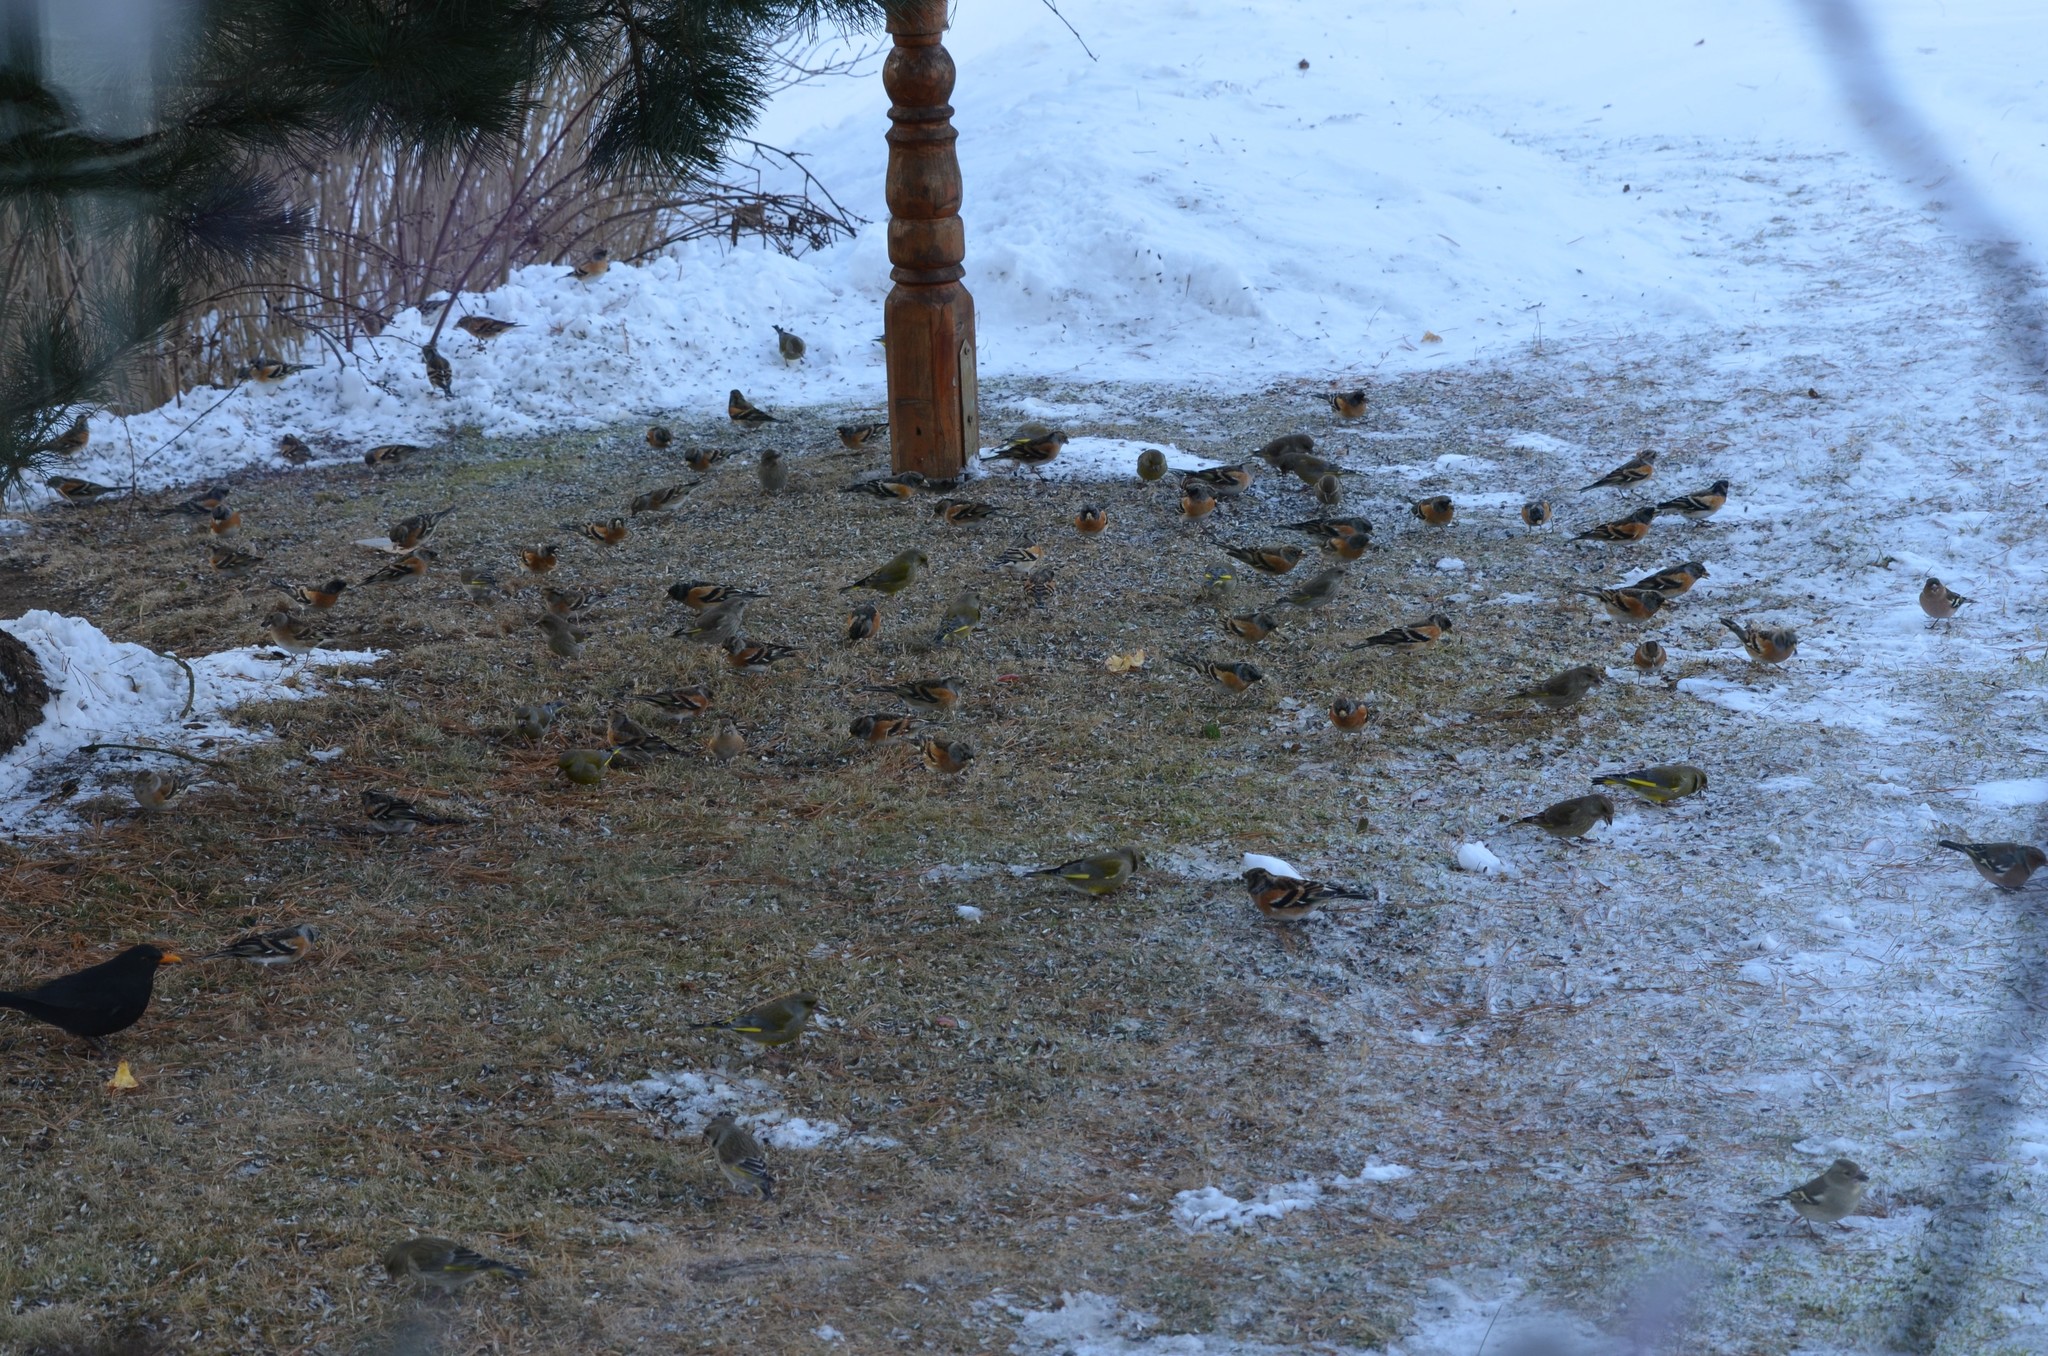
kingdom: Animalia
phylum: Chordata
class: Aves
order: Passeriformes
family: Fringillidae
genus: Fringilla
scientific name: Fringilla montifringilla
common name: Brambling
